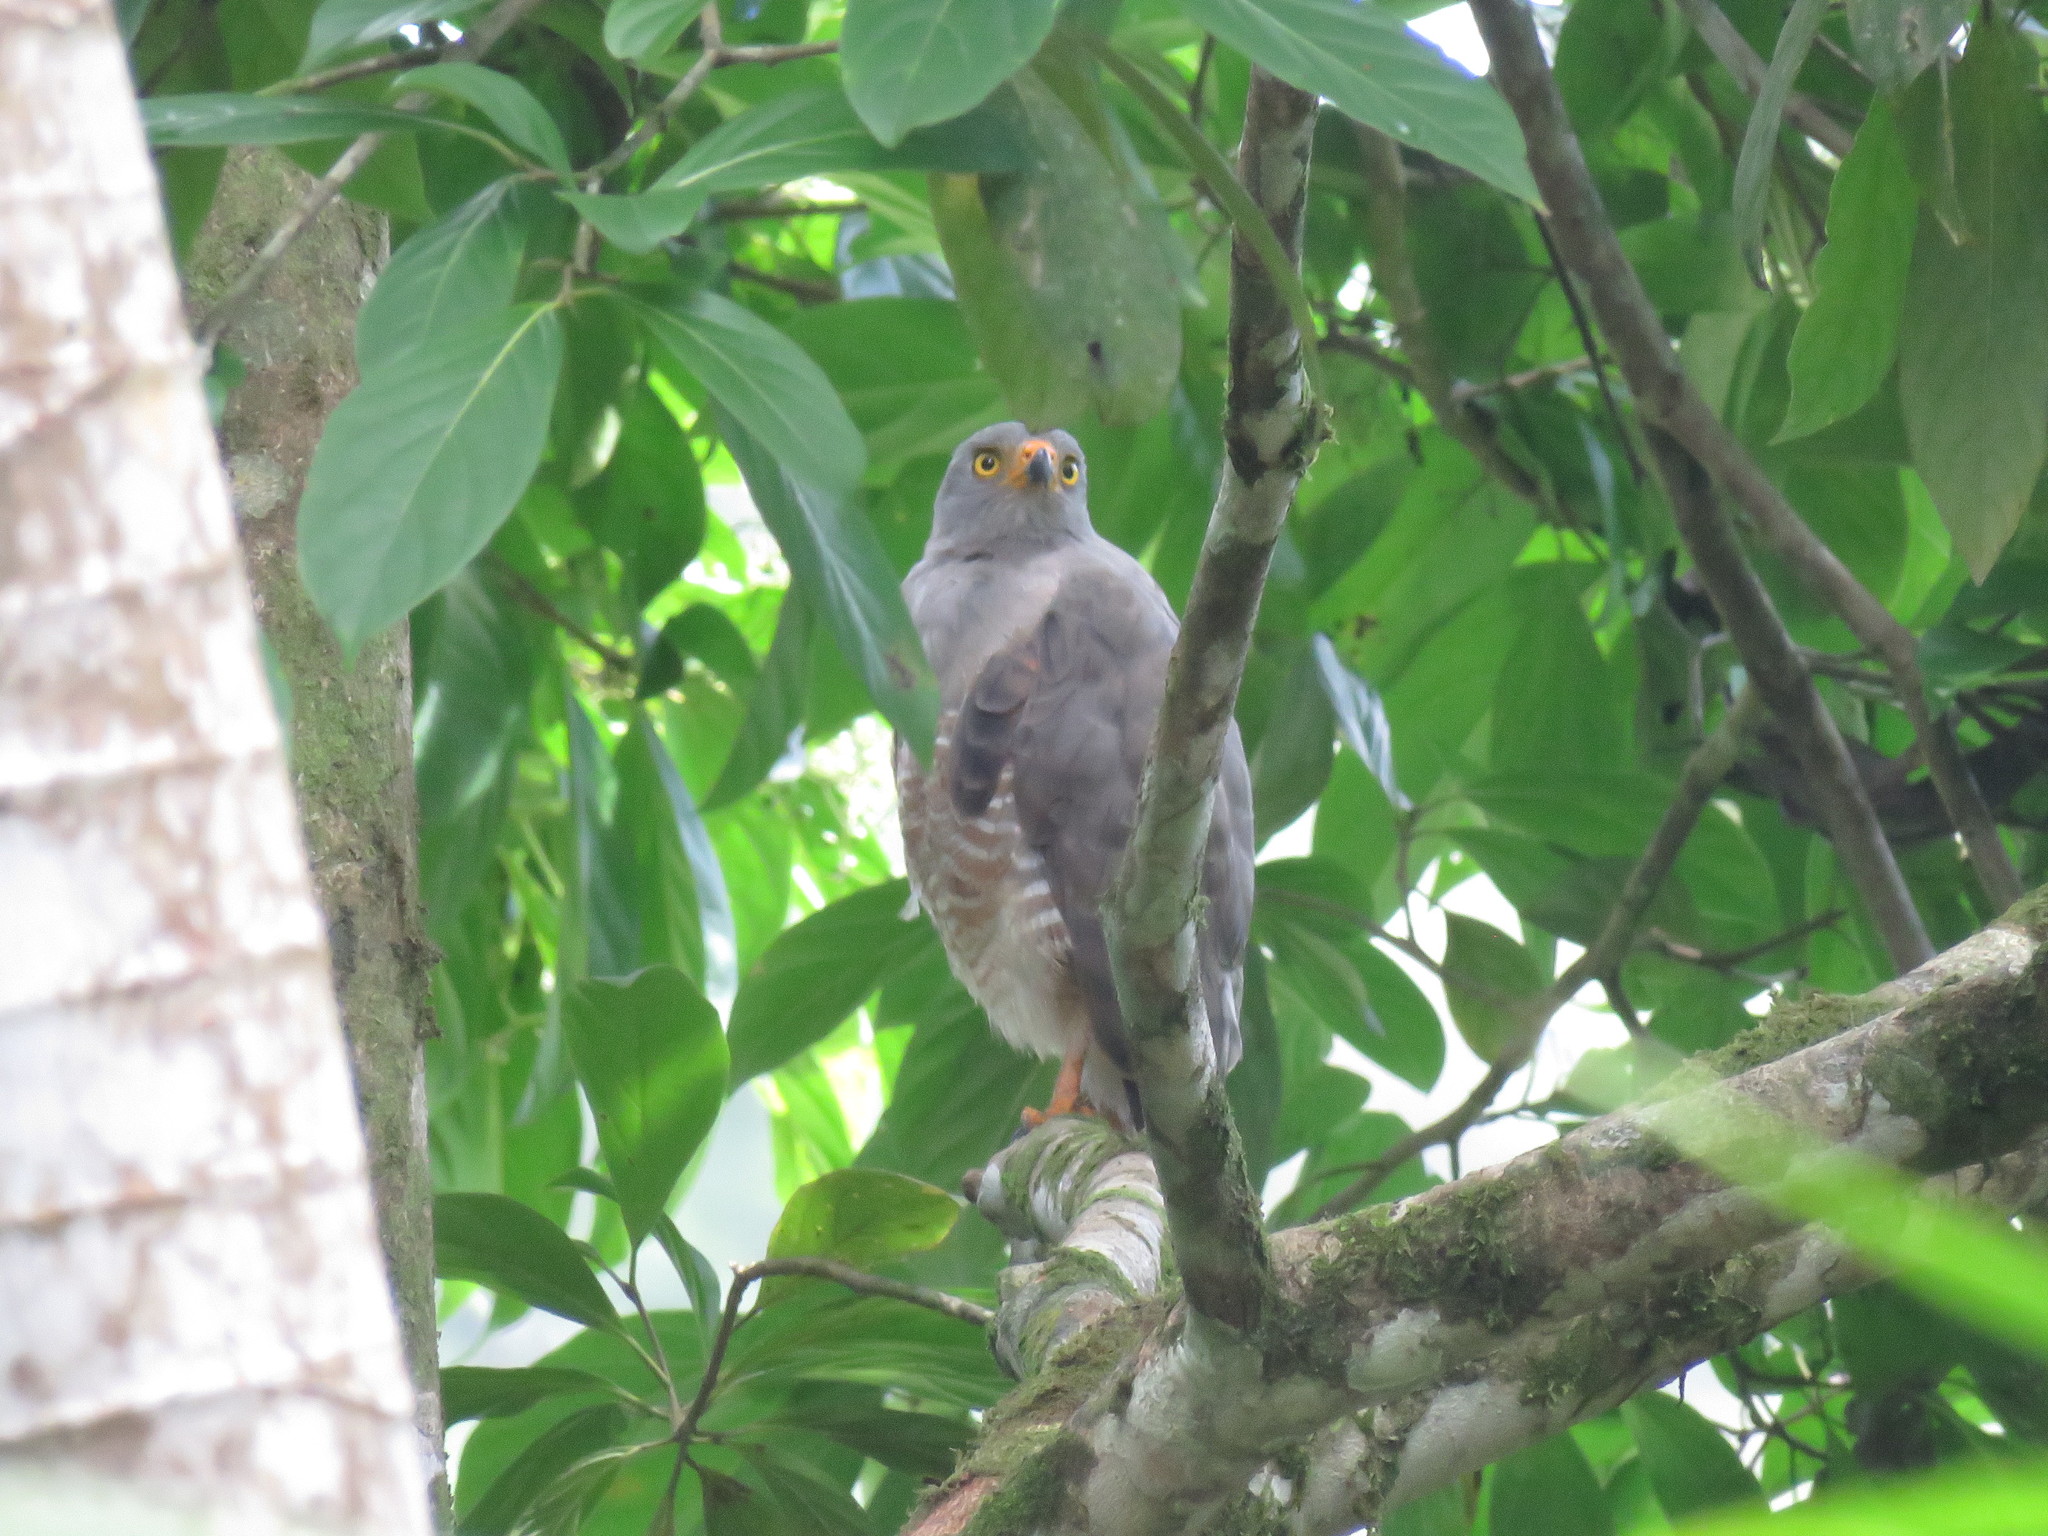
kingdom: Animalia
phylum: Chordata
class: Aves
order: Accipitriformes
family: Accipitridae
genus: Rupornis
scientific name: Rupornis magnirostris
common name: Roadside hawk
